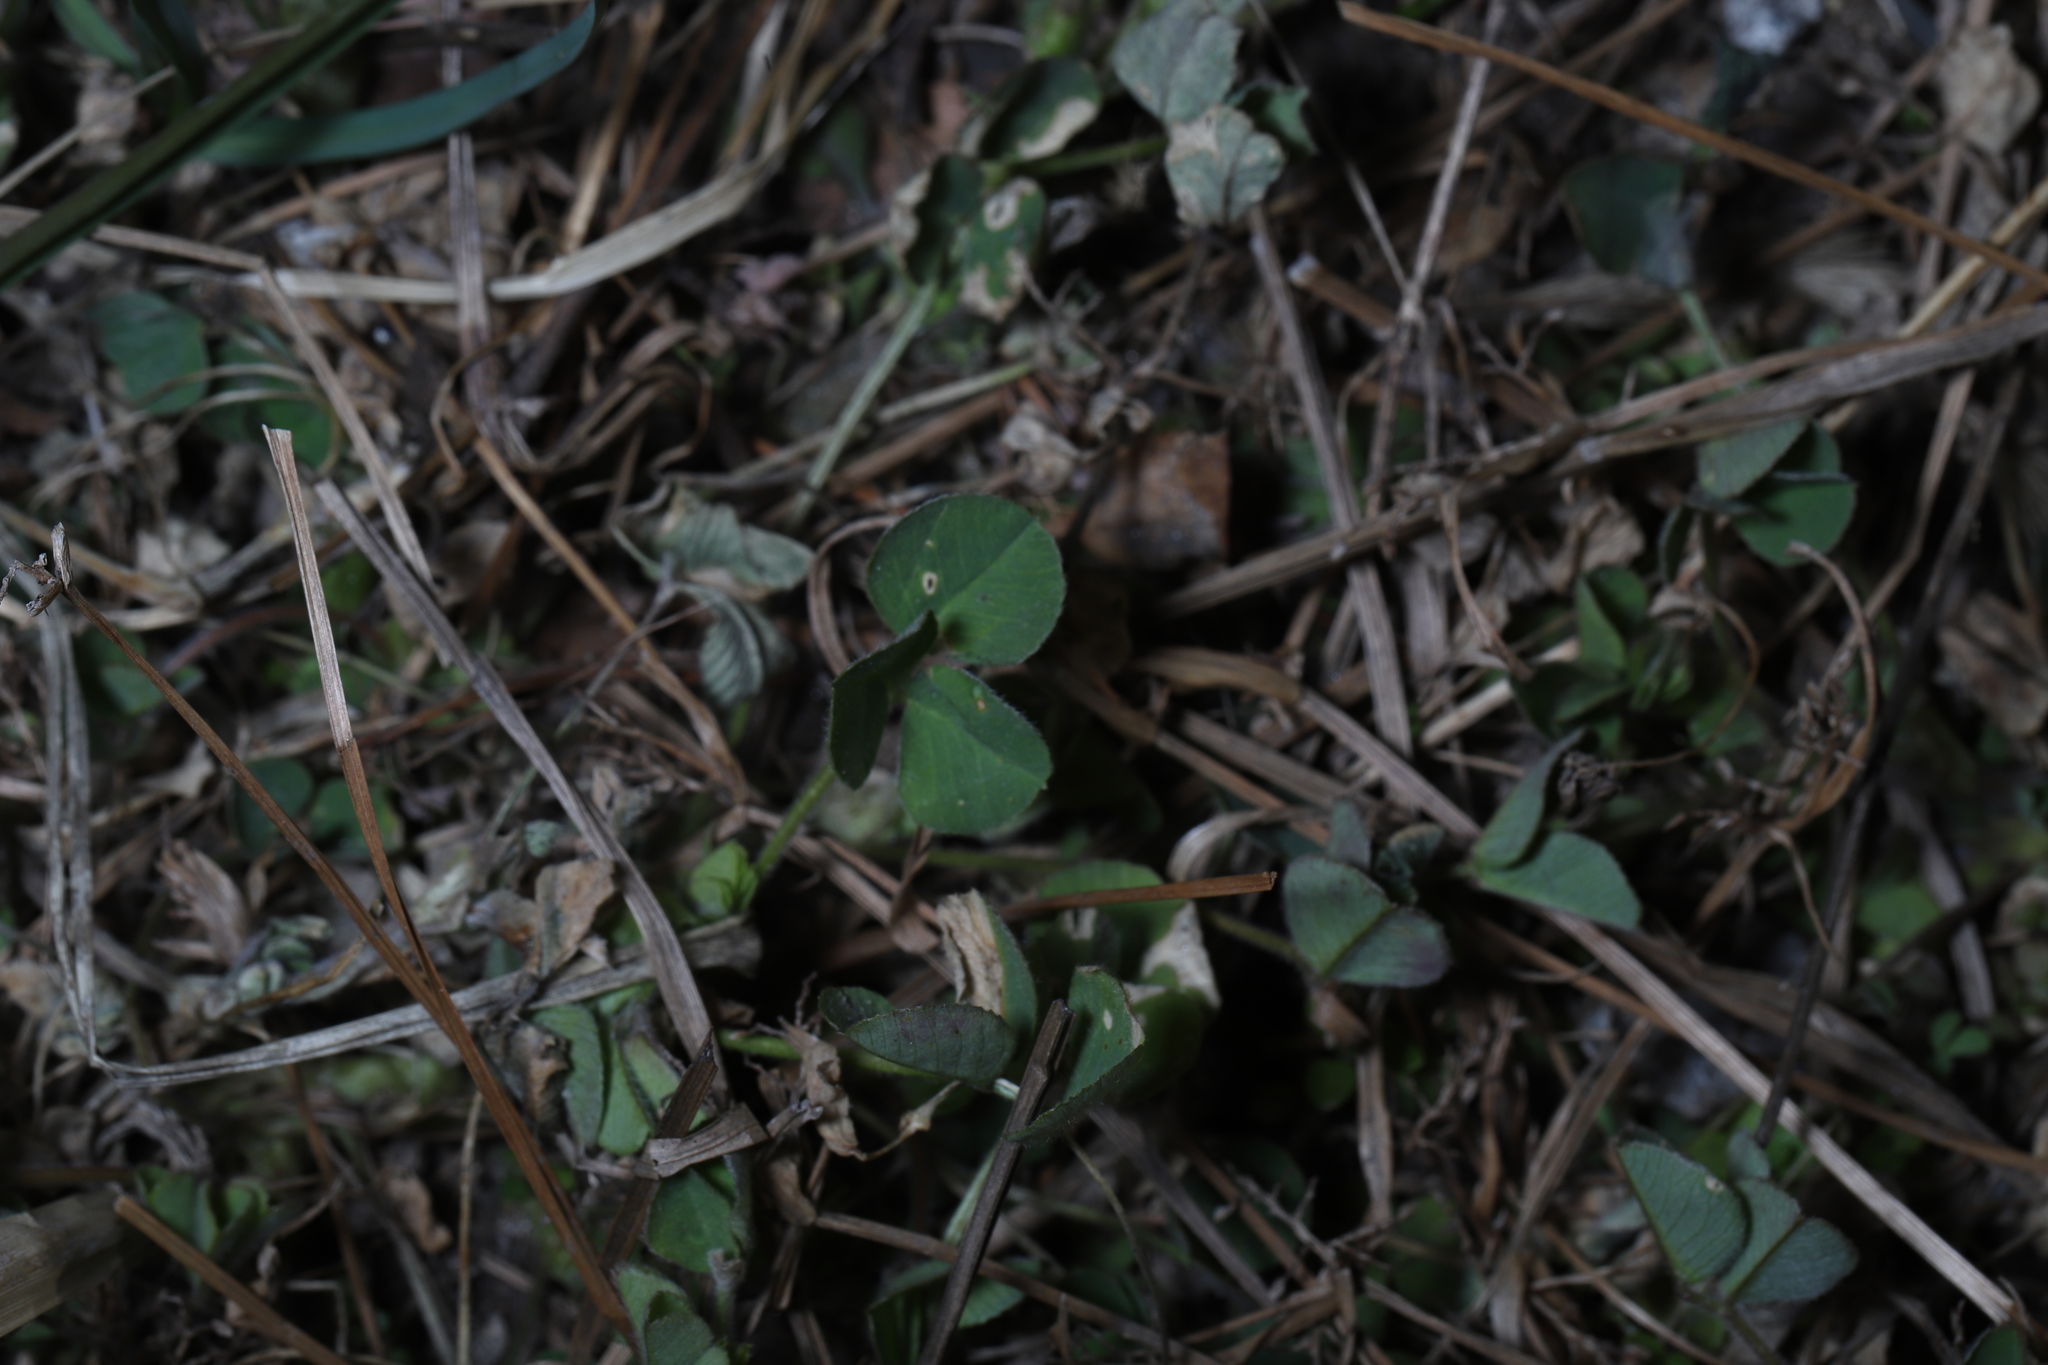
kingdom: Plantae
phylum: Tracheophyta
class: Magnoliopsida
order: Fabales
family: Fabaceae
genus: Medicago
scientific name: Medicago lupulina
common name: Black medick
